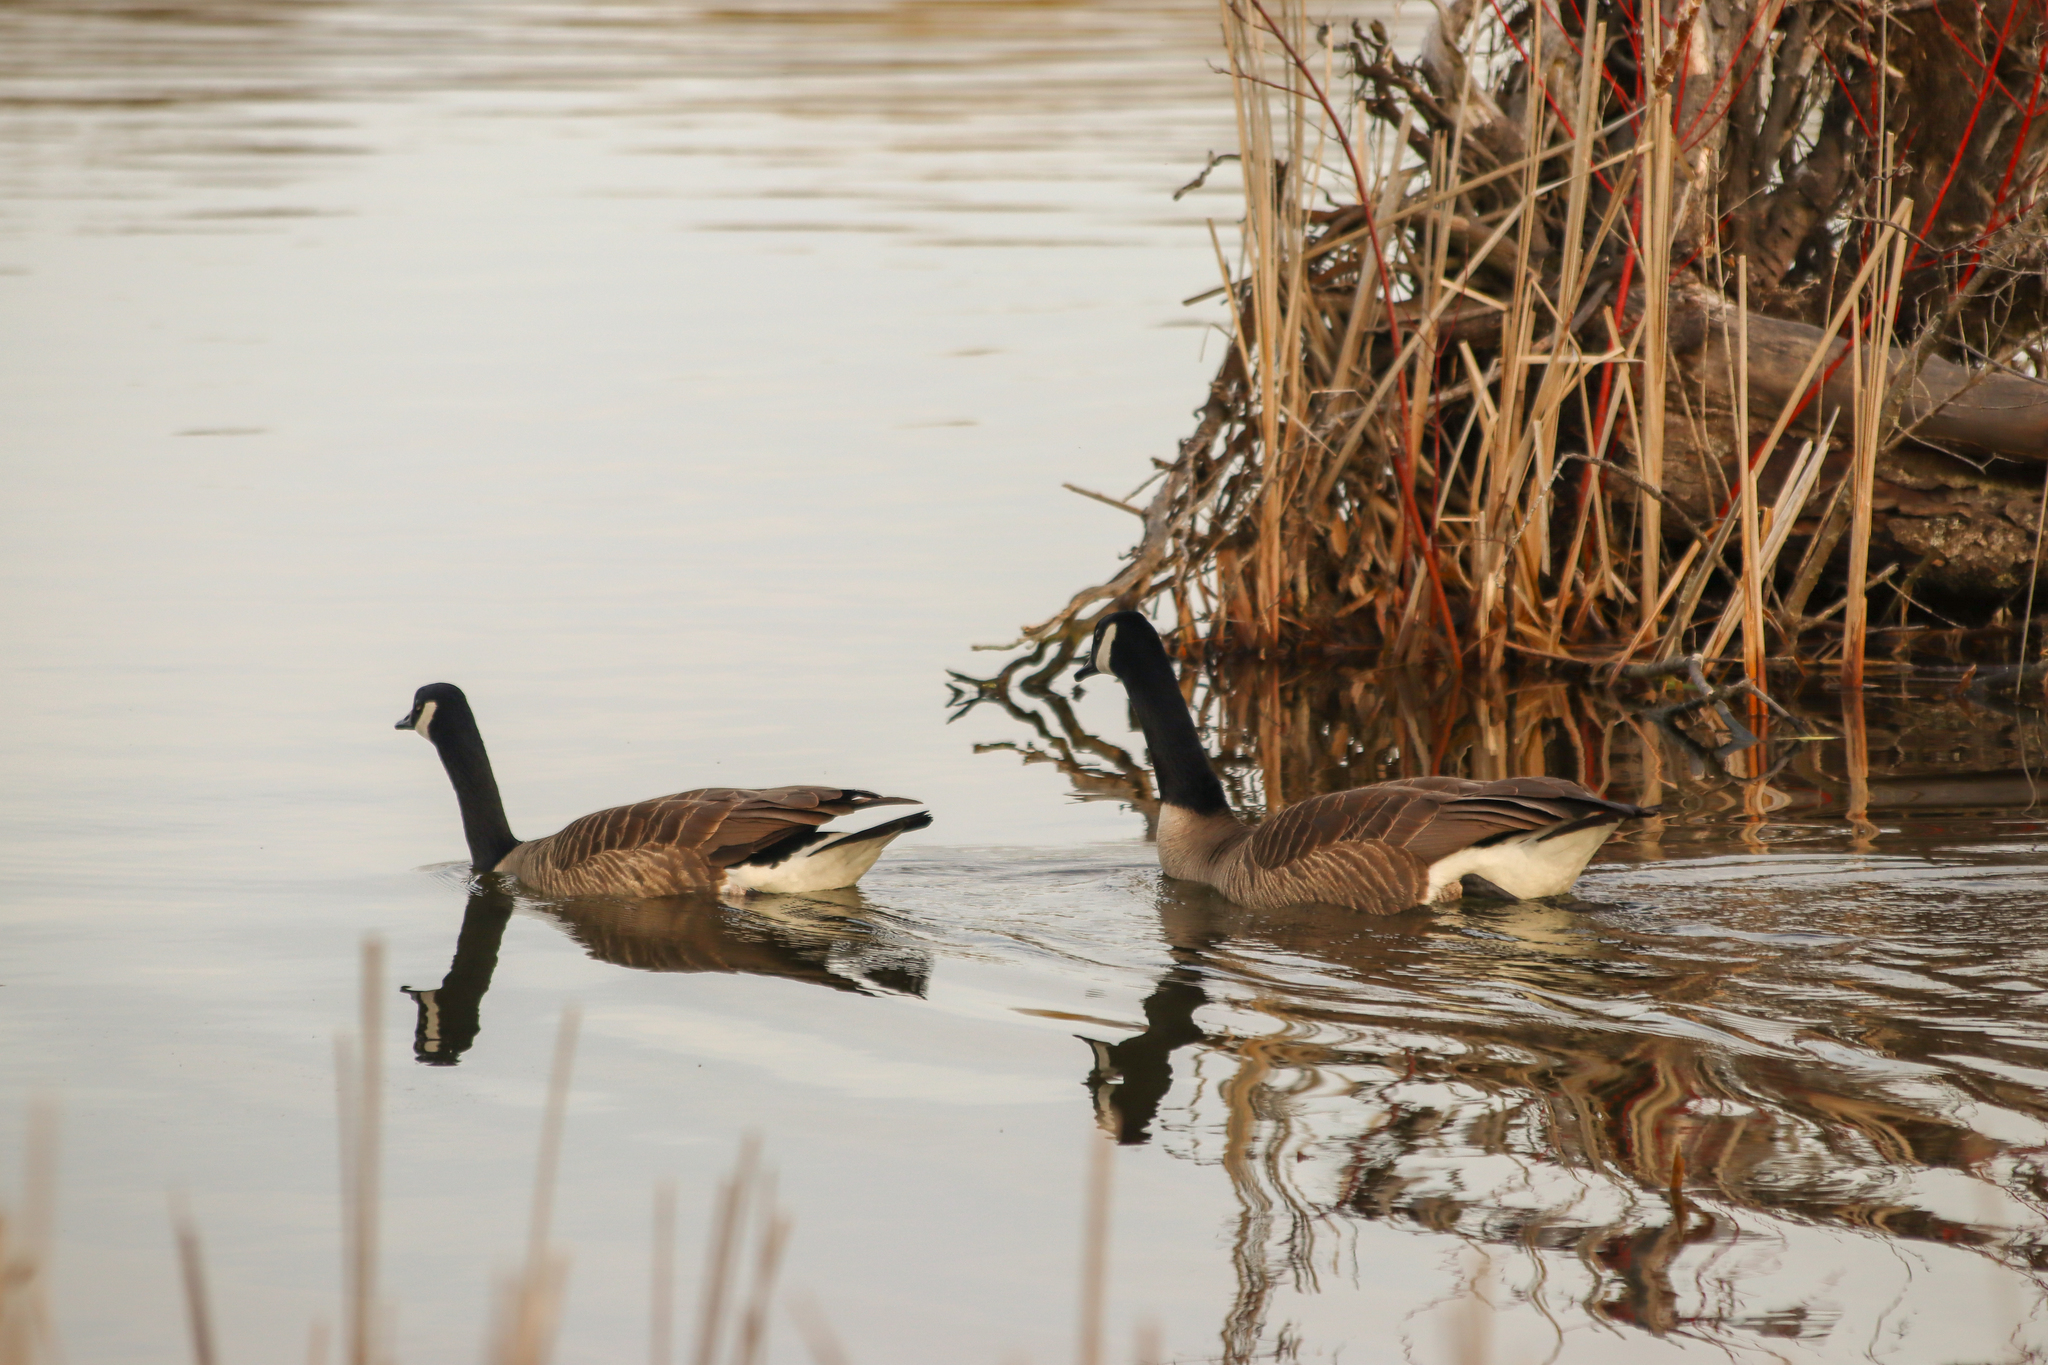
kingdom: Animalia
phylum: Chordata
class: Aves
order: Anseriformes
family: Anatidae
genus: Branta
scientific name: Branta canadensis
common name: Canada goose
